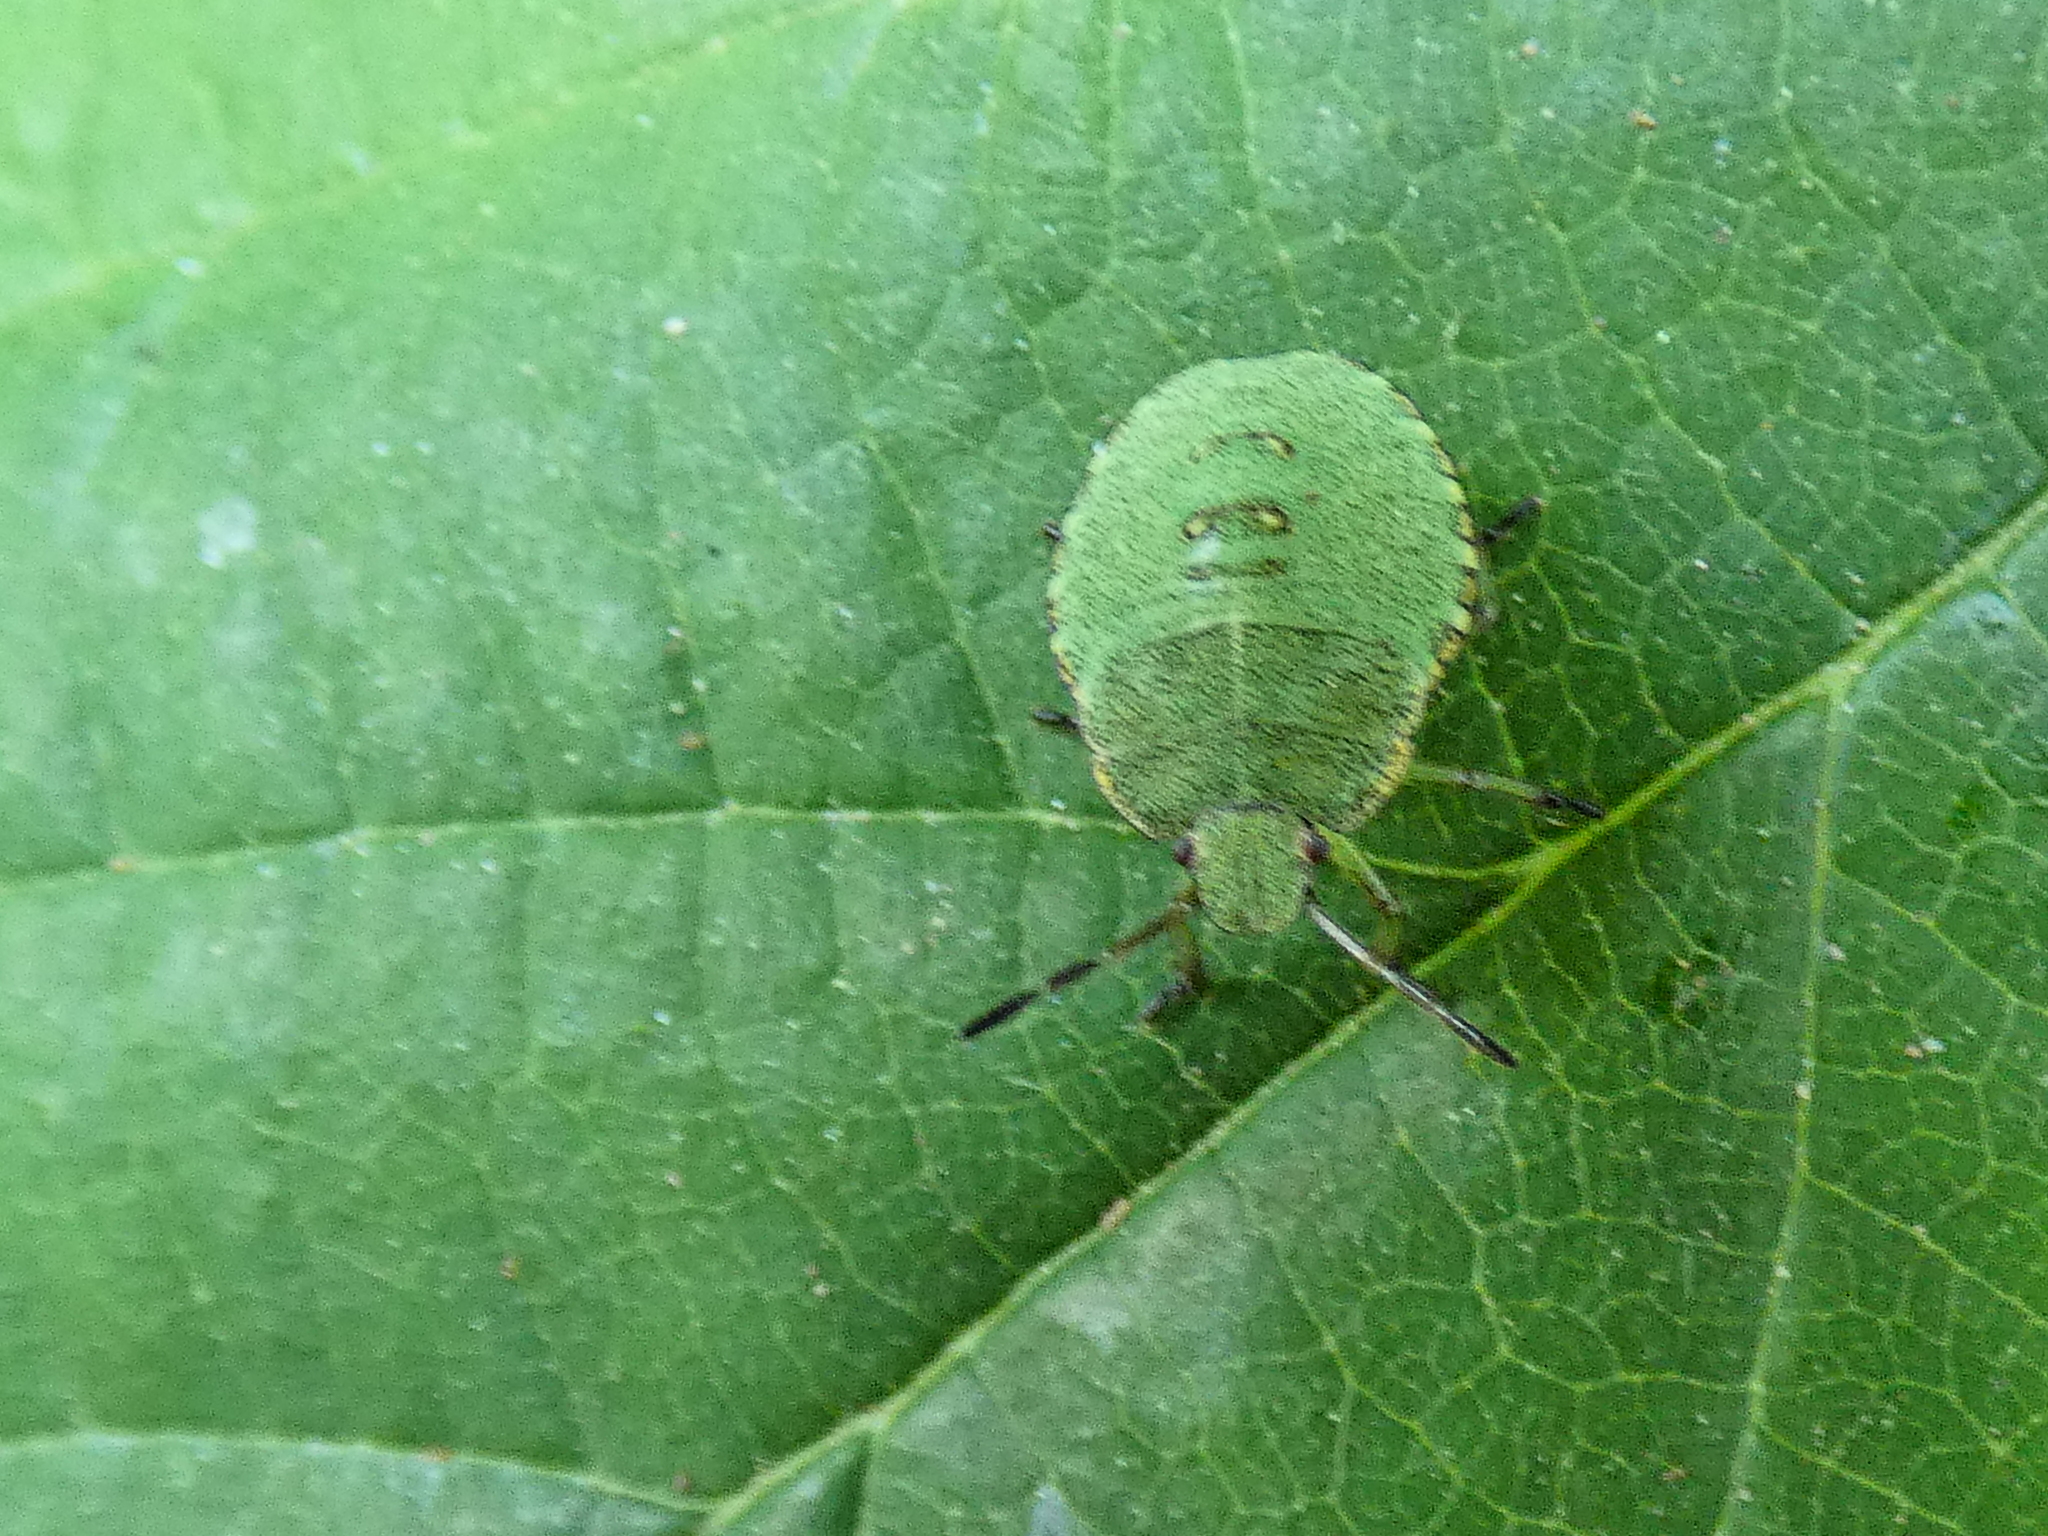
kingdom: Animalia
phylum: Arthropoda
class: Insecta
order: Hemiptera
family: Pentatomidae
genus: Palomena
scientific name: Palomena prasina
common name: Green shieldbug
